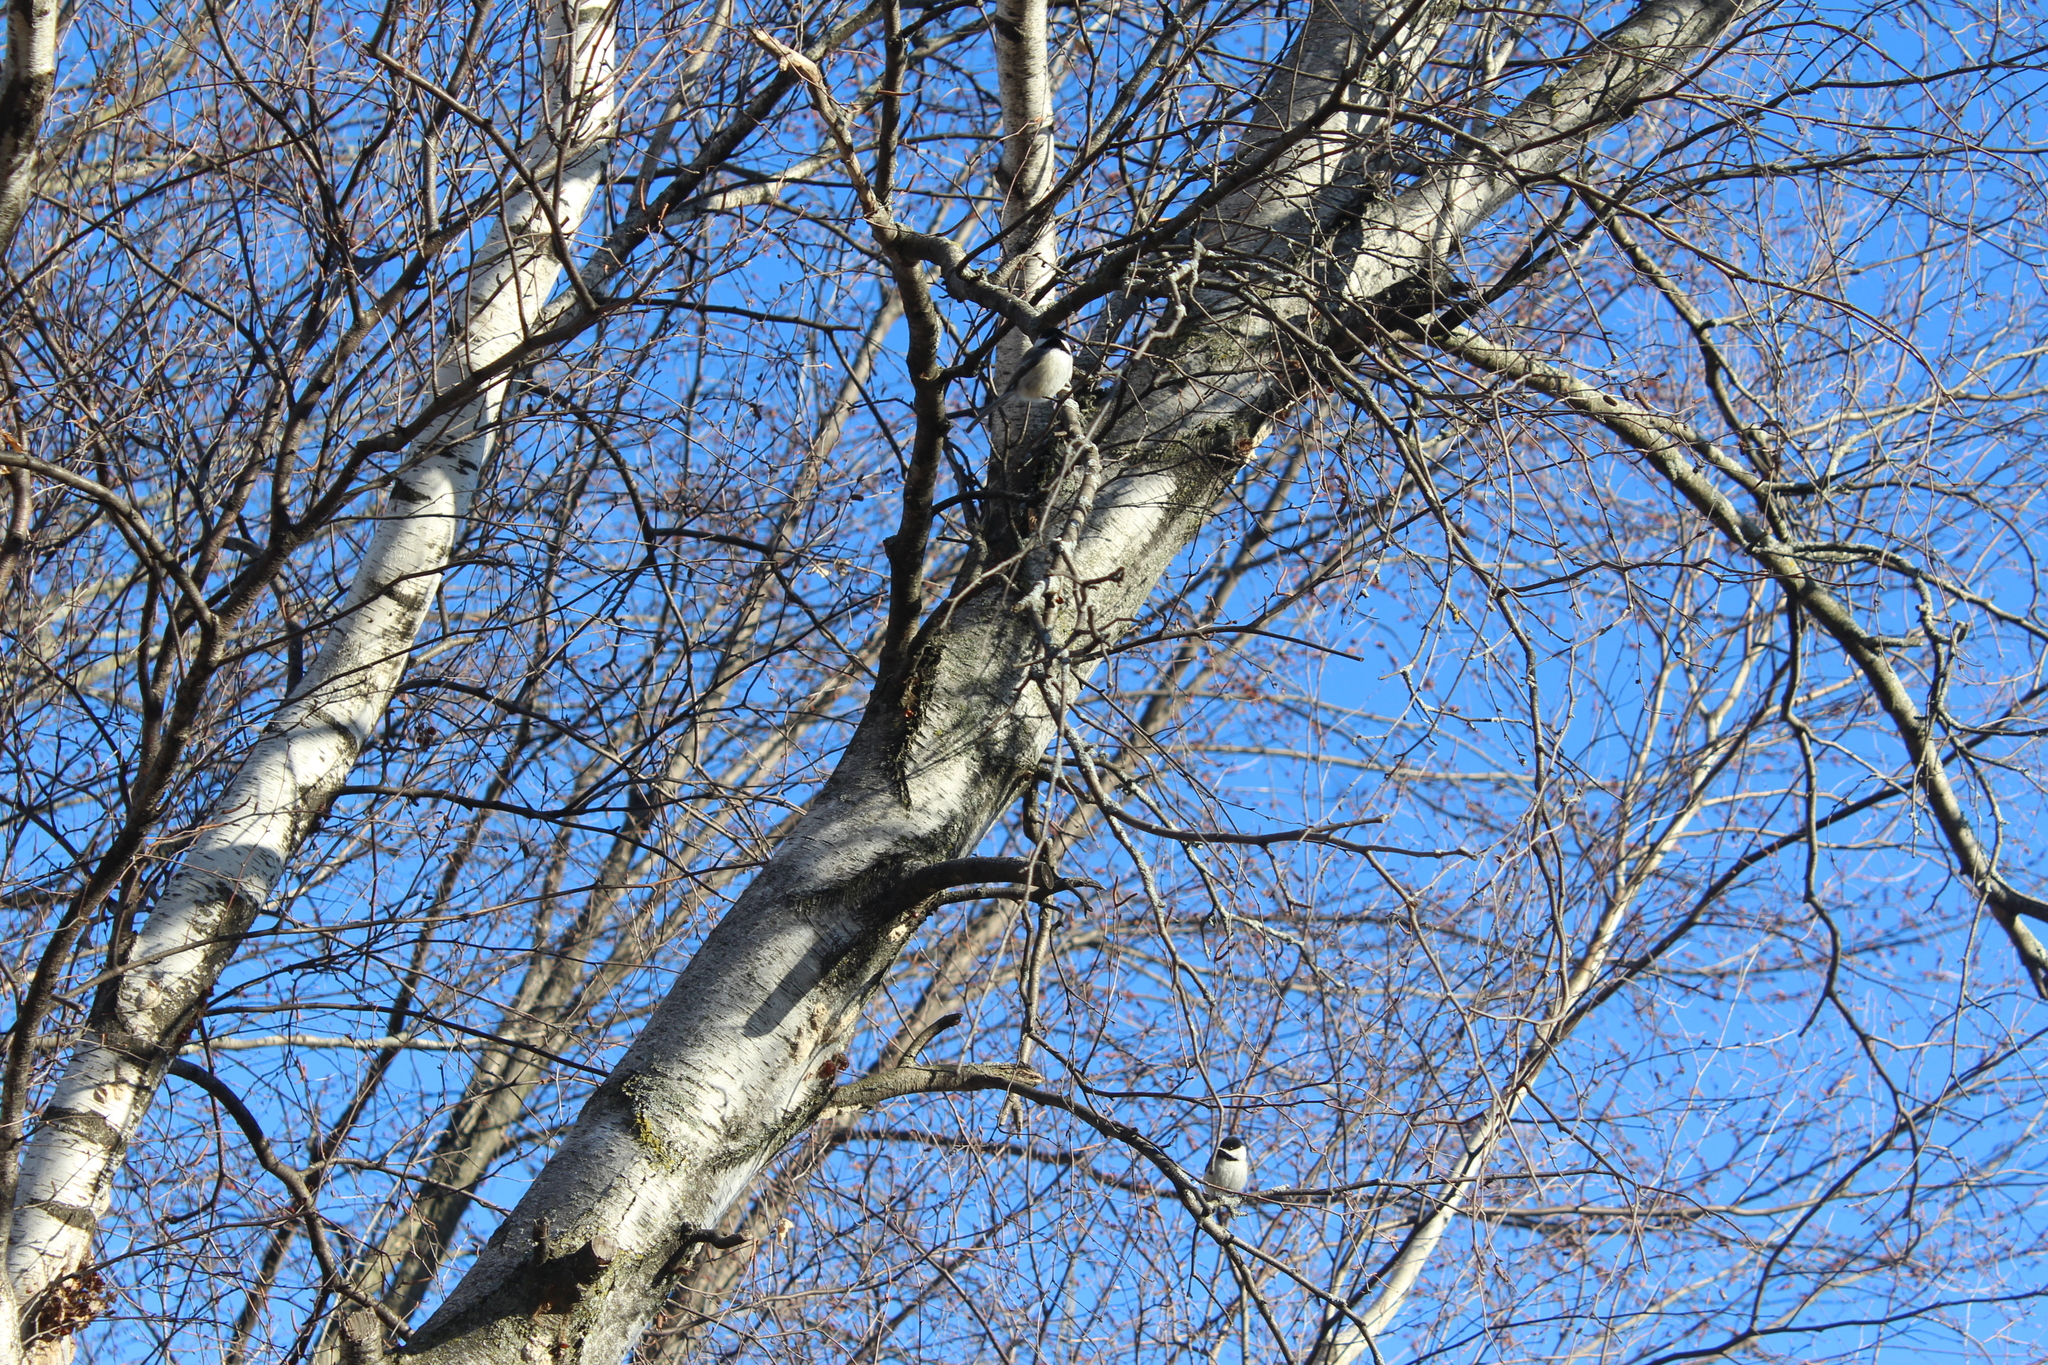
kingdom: Animalia
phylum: Chordata
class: Aves
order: Passeriformes
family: Paridae
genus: Poecile
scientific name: Poecile atricapillus
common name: Black-capped chickadee
